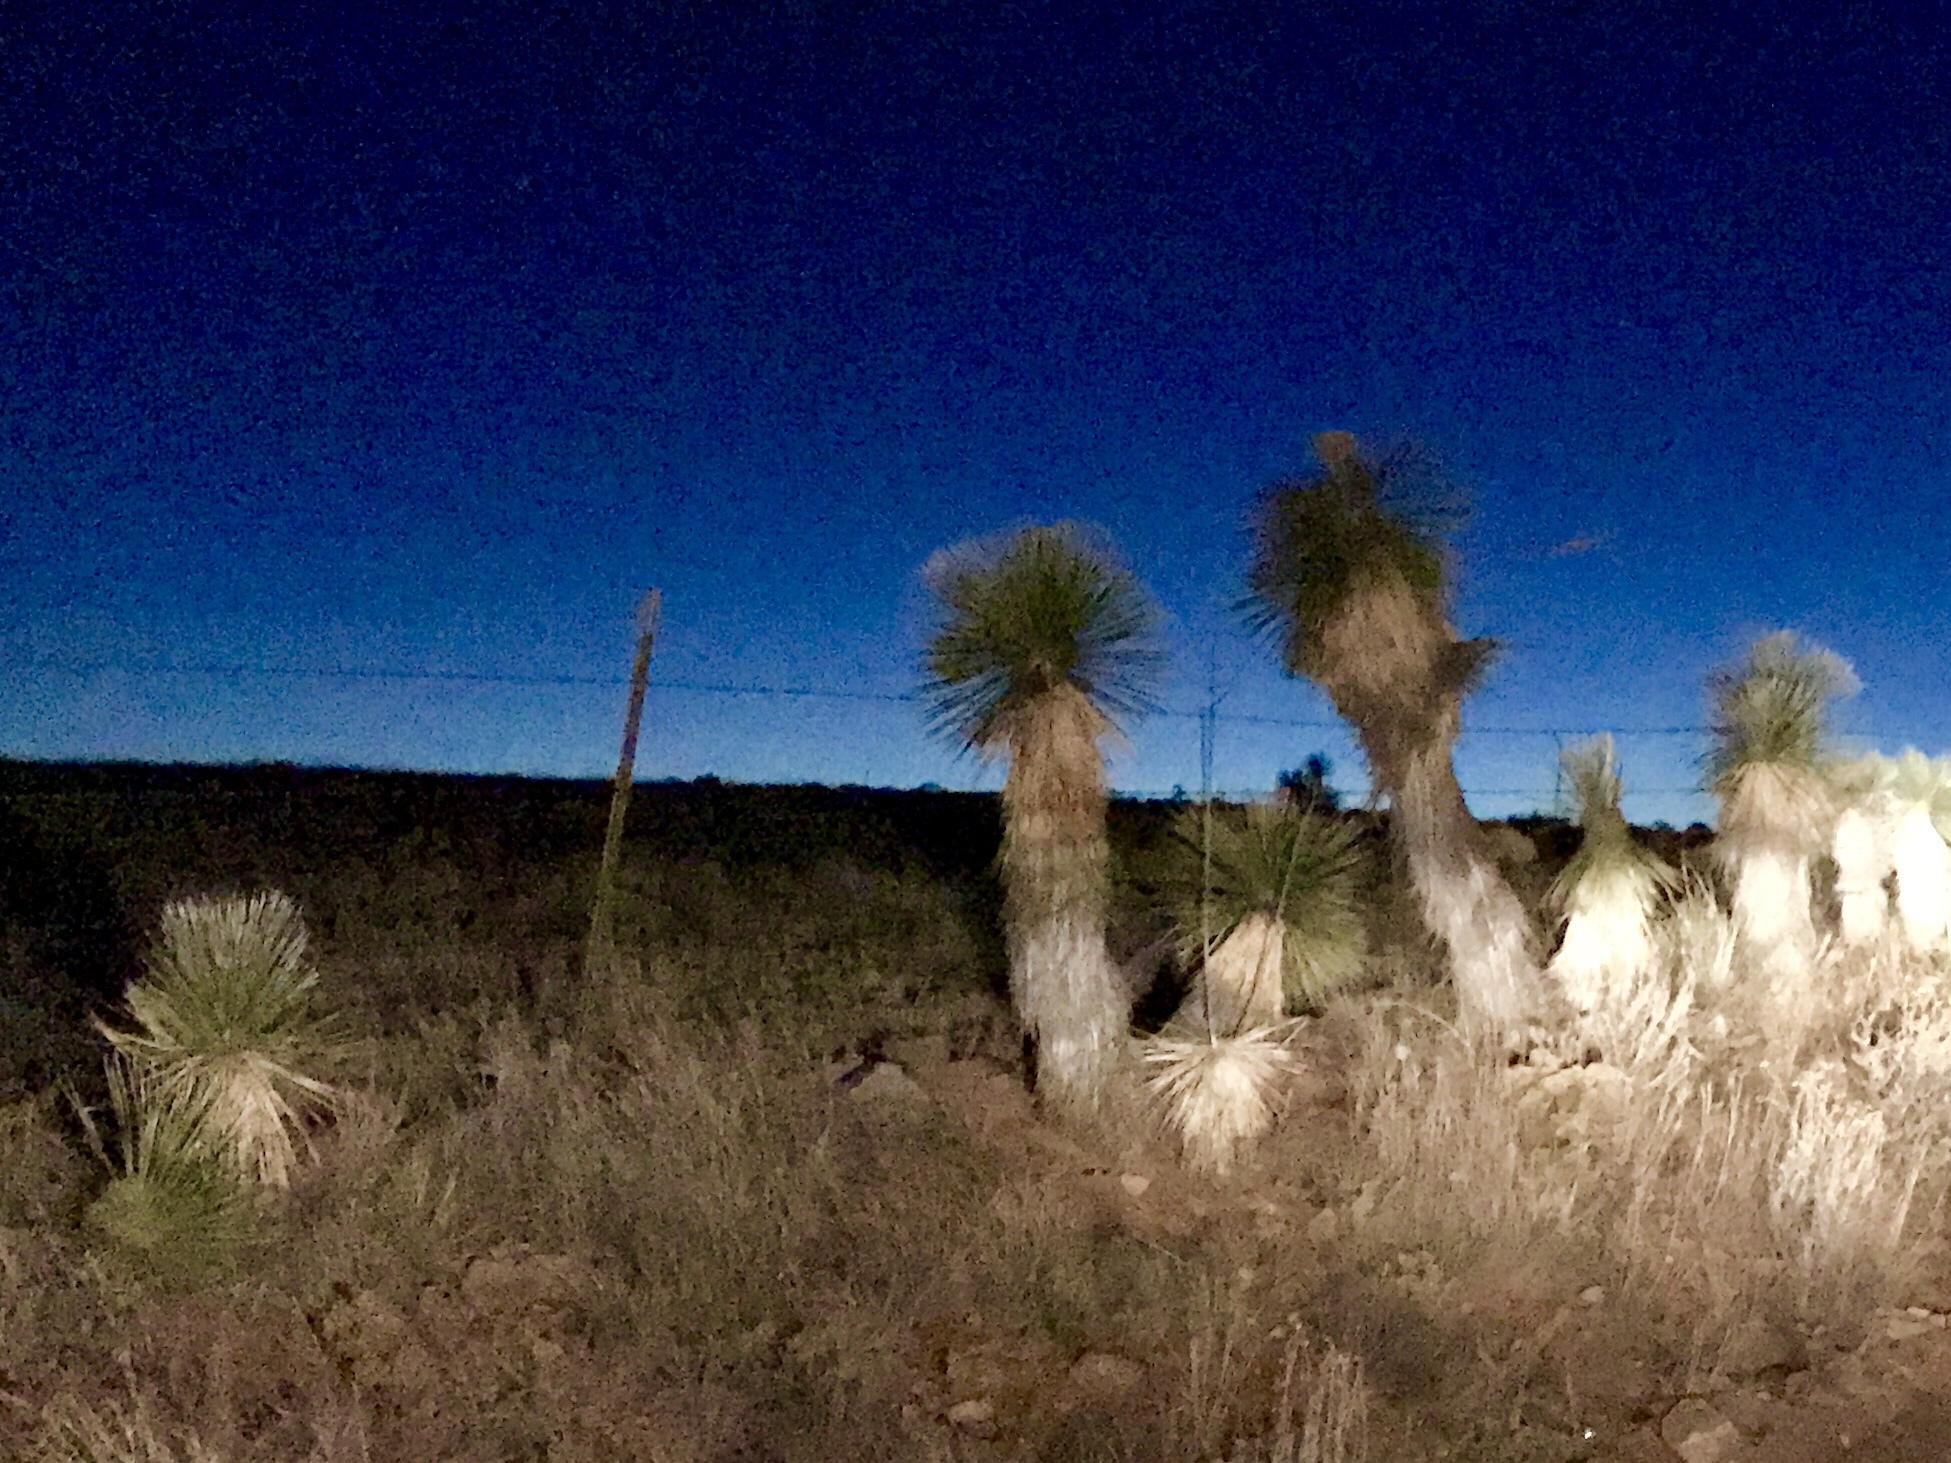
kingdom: Plantae
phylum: Tracheophyta
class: Liliopsida
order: Asparagales
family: Asparagaceae
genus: Yucca
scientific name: Yucca elata
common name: Palmella
